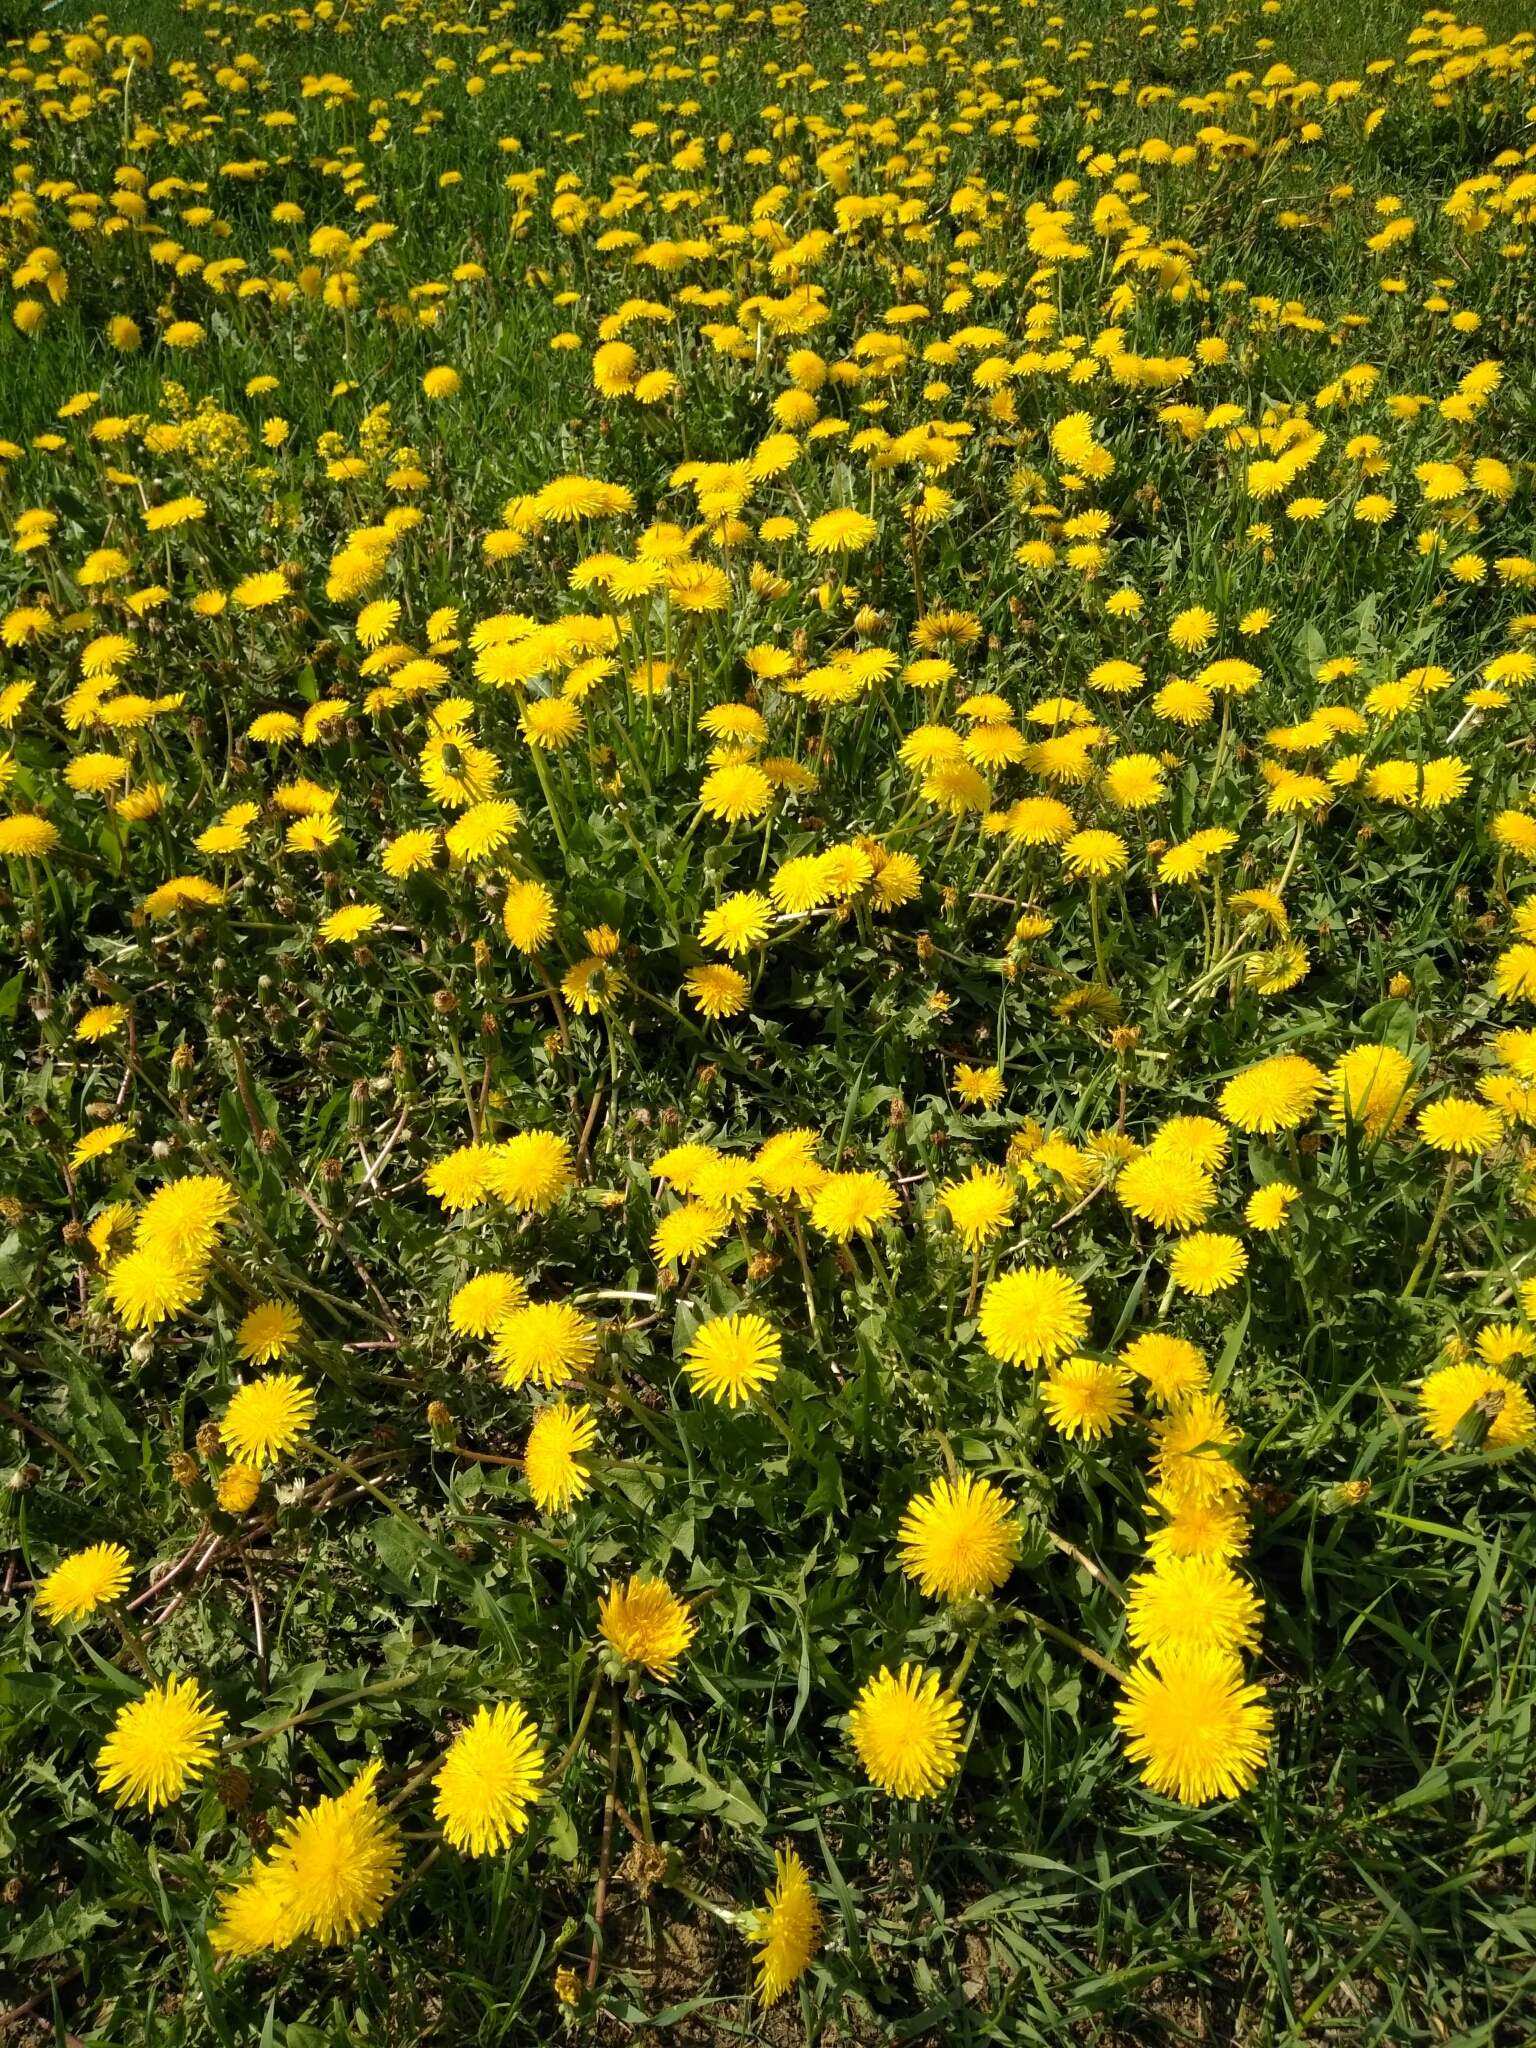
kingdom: Plantae
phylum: Tracheophyta
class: Magnoliopsida
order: Asterales
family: Asteraceae
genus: Taraxacum
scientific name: Taraxacum officinale
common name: Common dandelion
